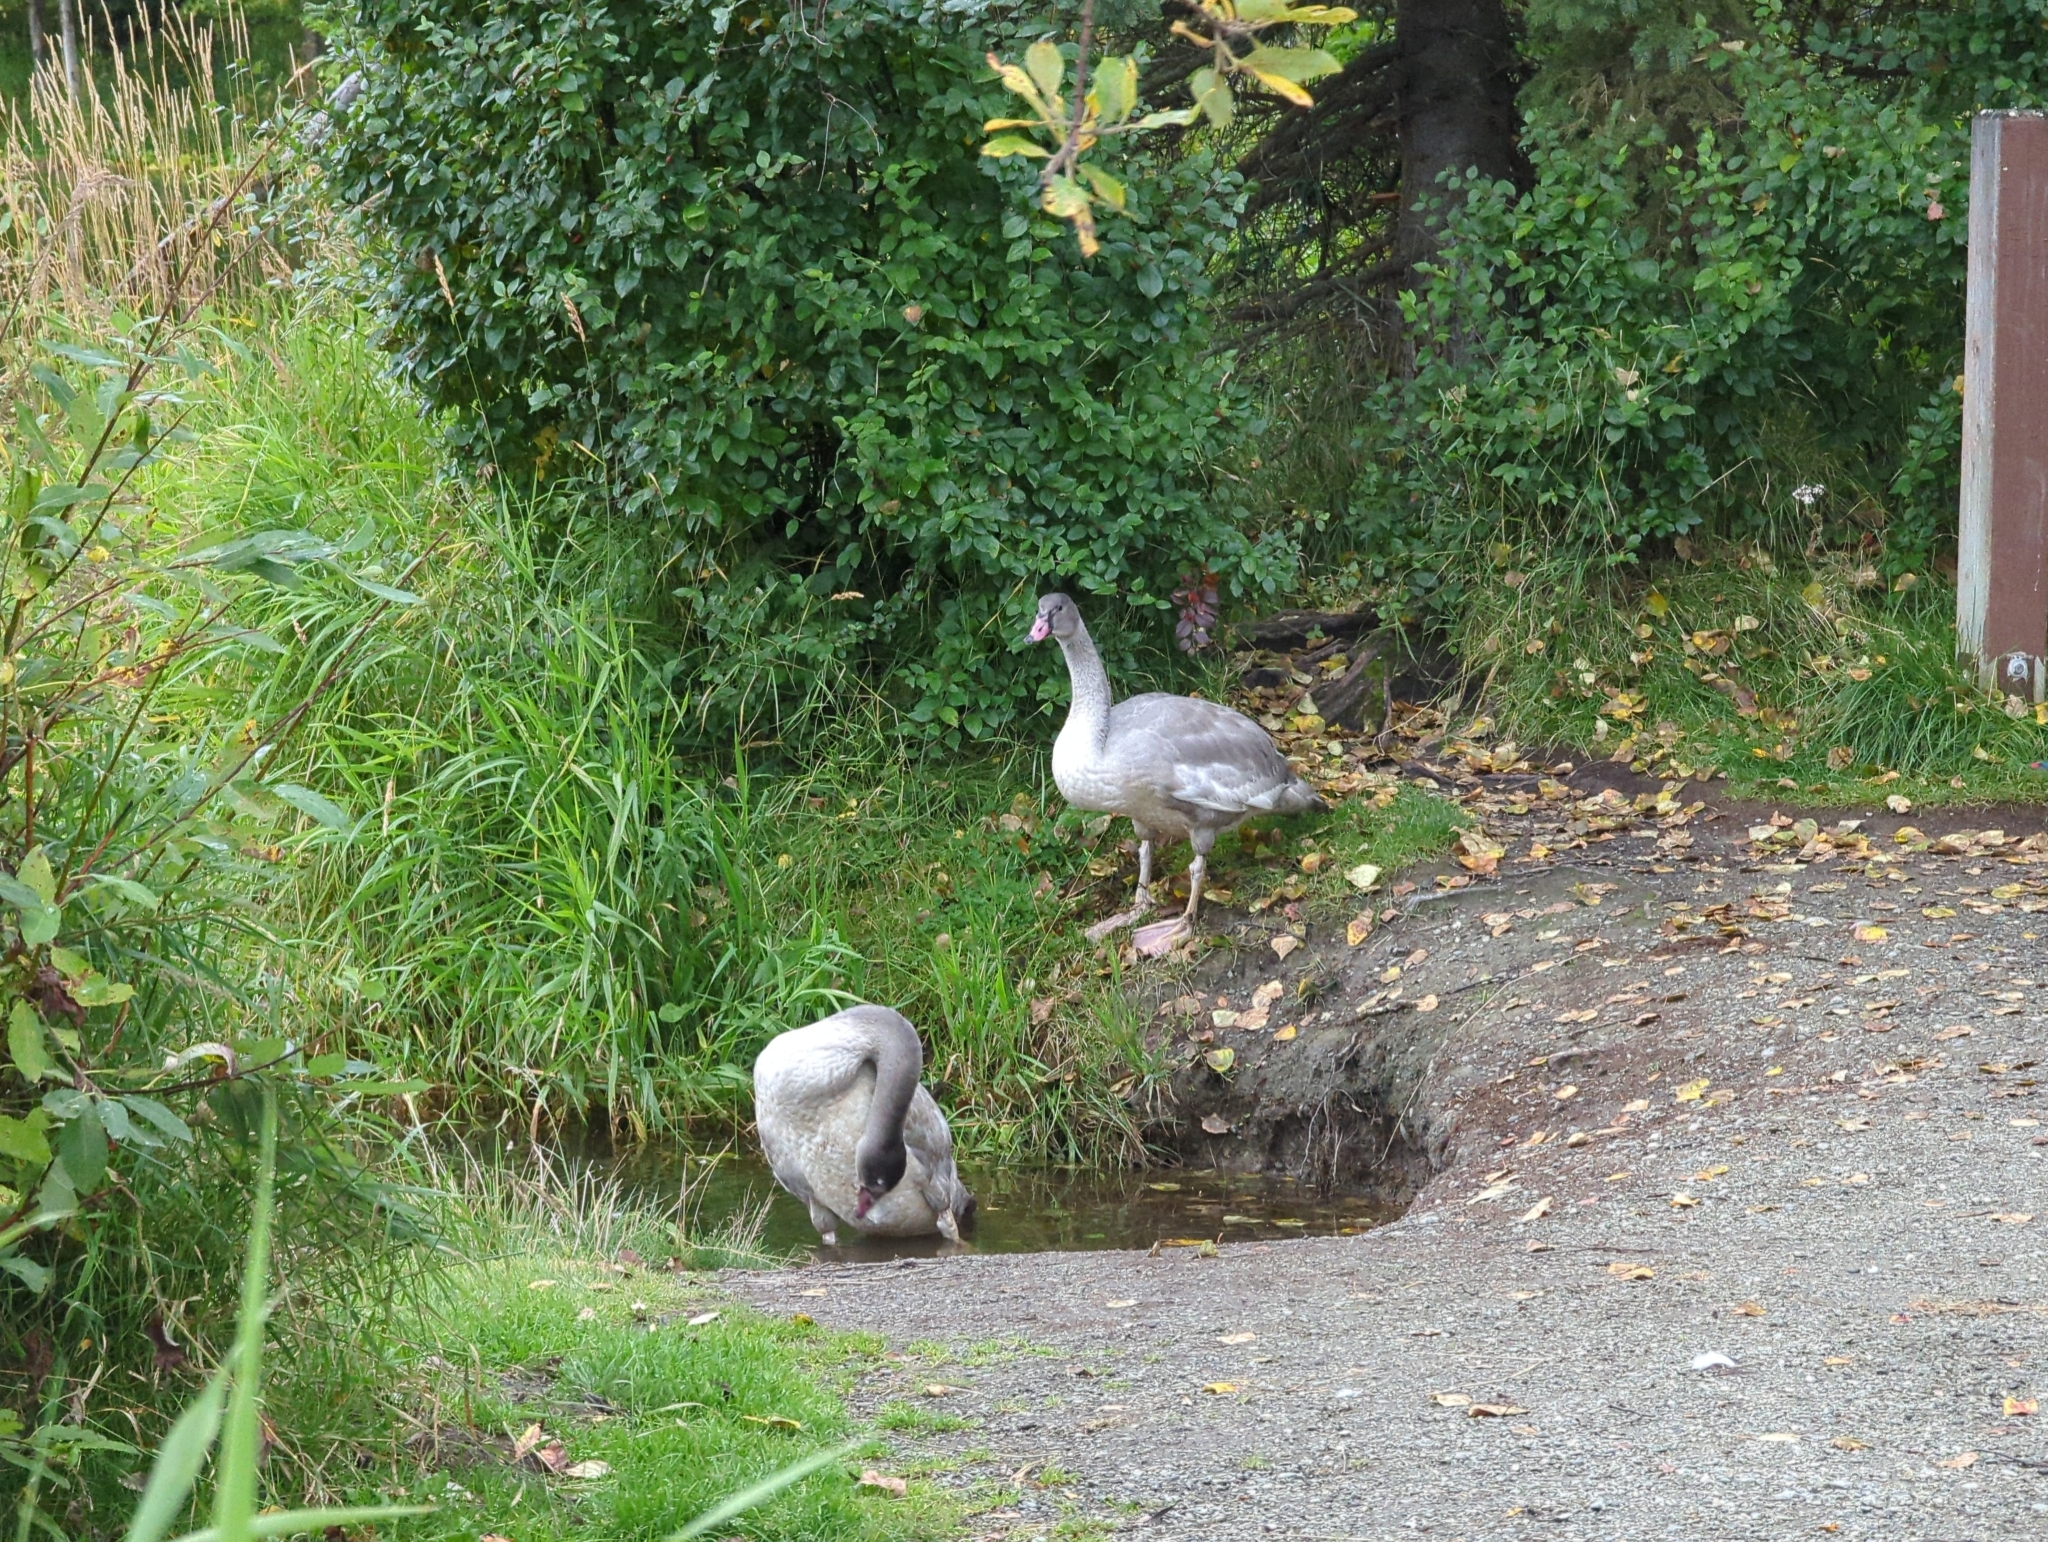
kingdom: Animalia
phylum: Chordata
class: Aves
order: Anseriformes
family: Anatidae
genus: Cygnus
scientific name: Cygnus buccinator
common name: Trumpeter swan
